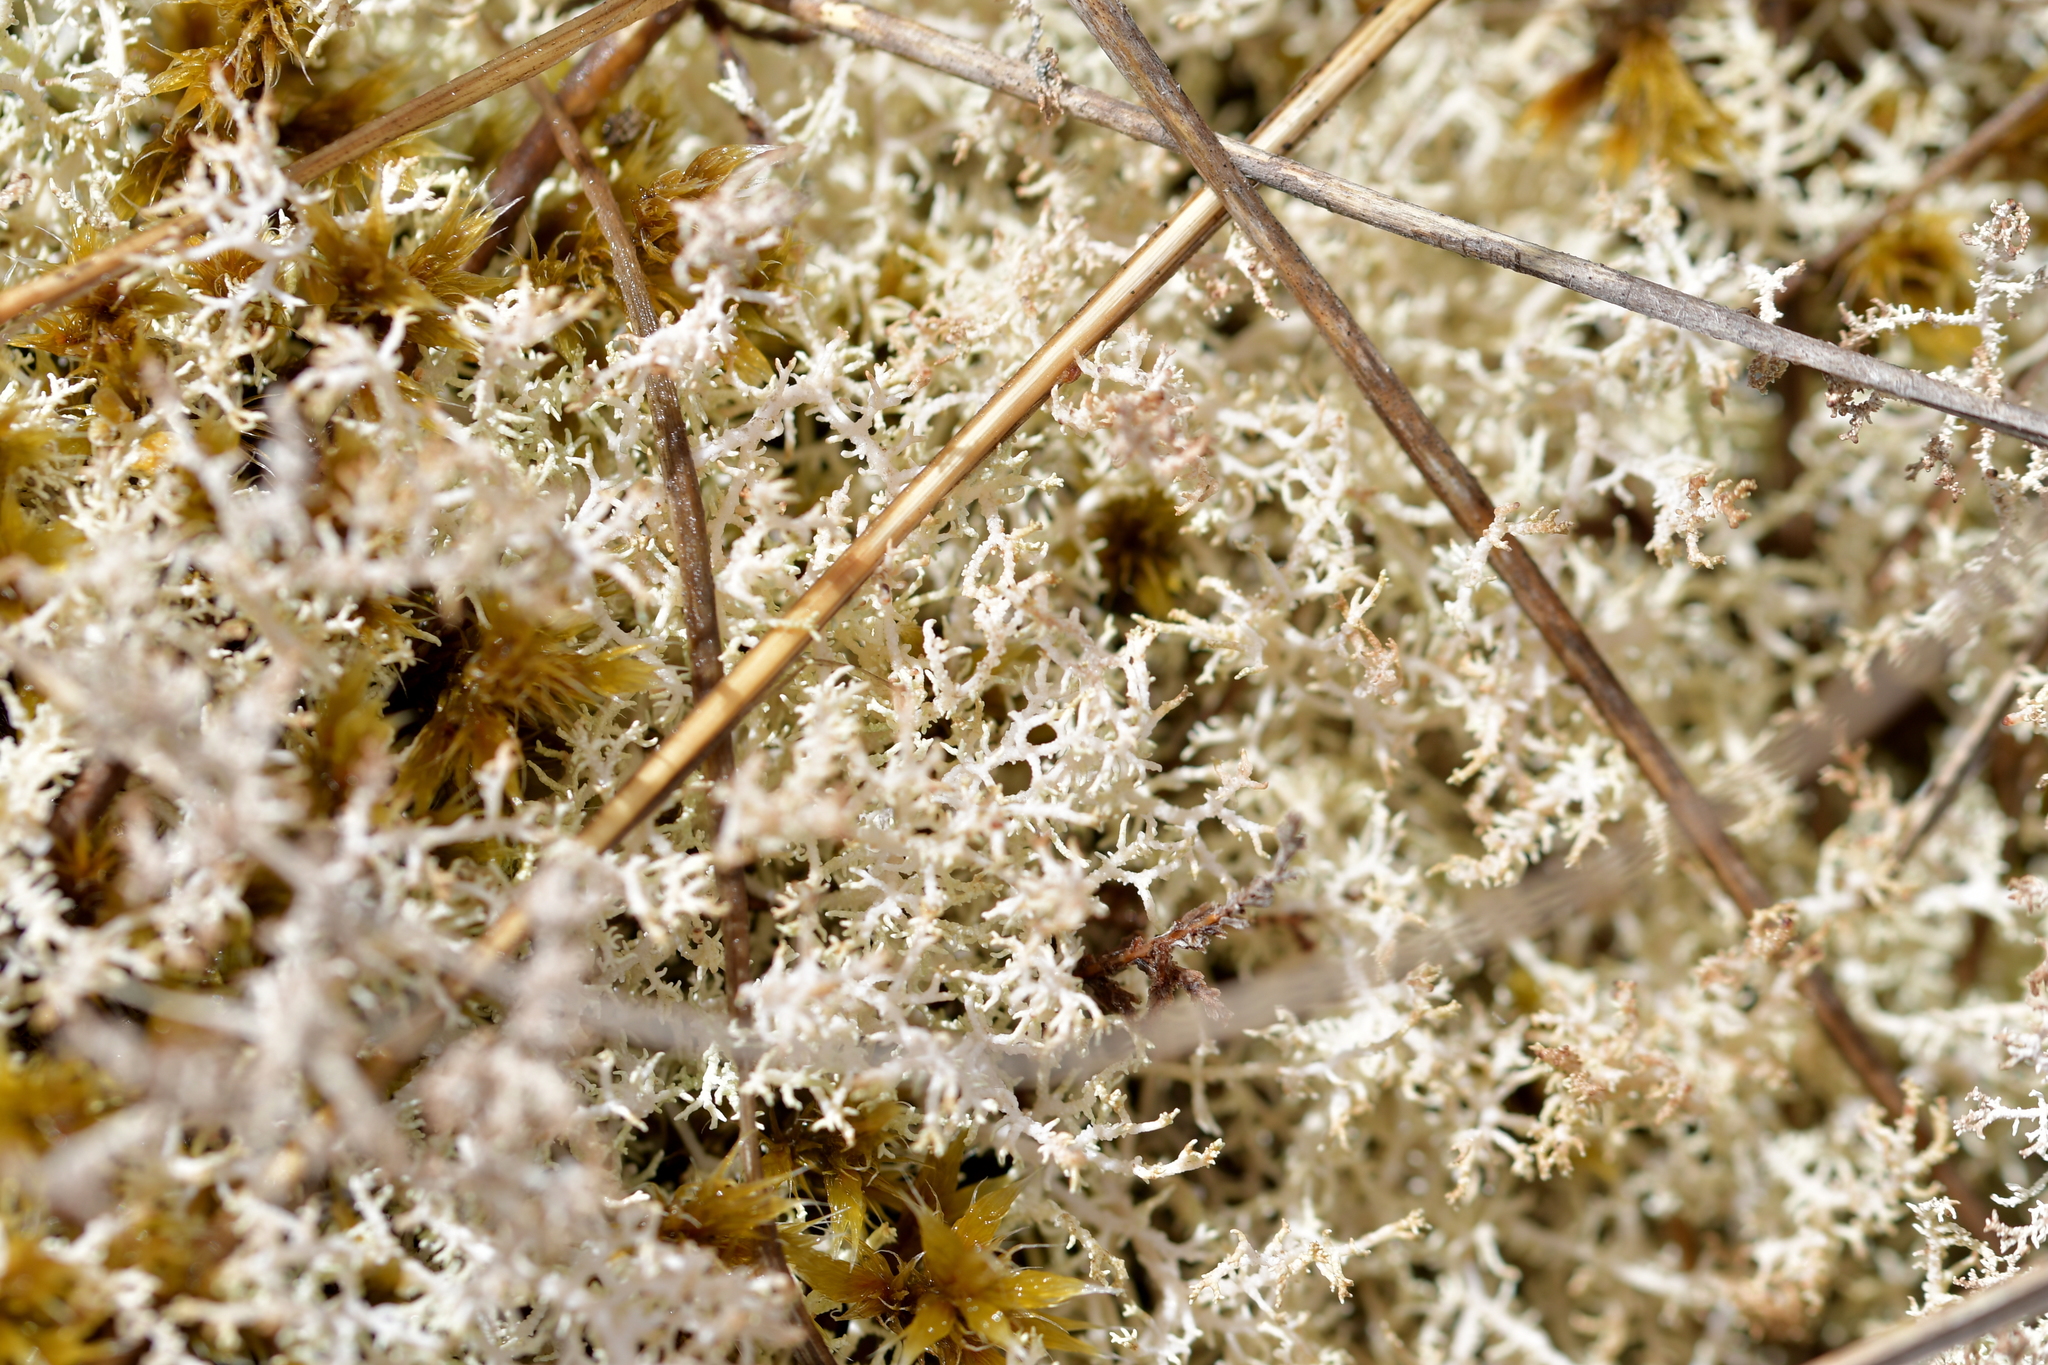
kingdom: Fungi
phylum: Ascomycota
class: Lecanoromycetes
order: Lecanorales
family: Sphaerophoraceae
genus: Leifidium
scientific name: Leifidium tenerum
